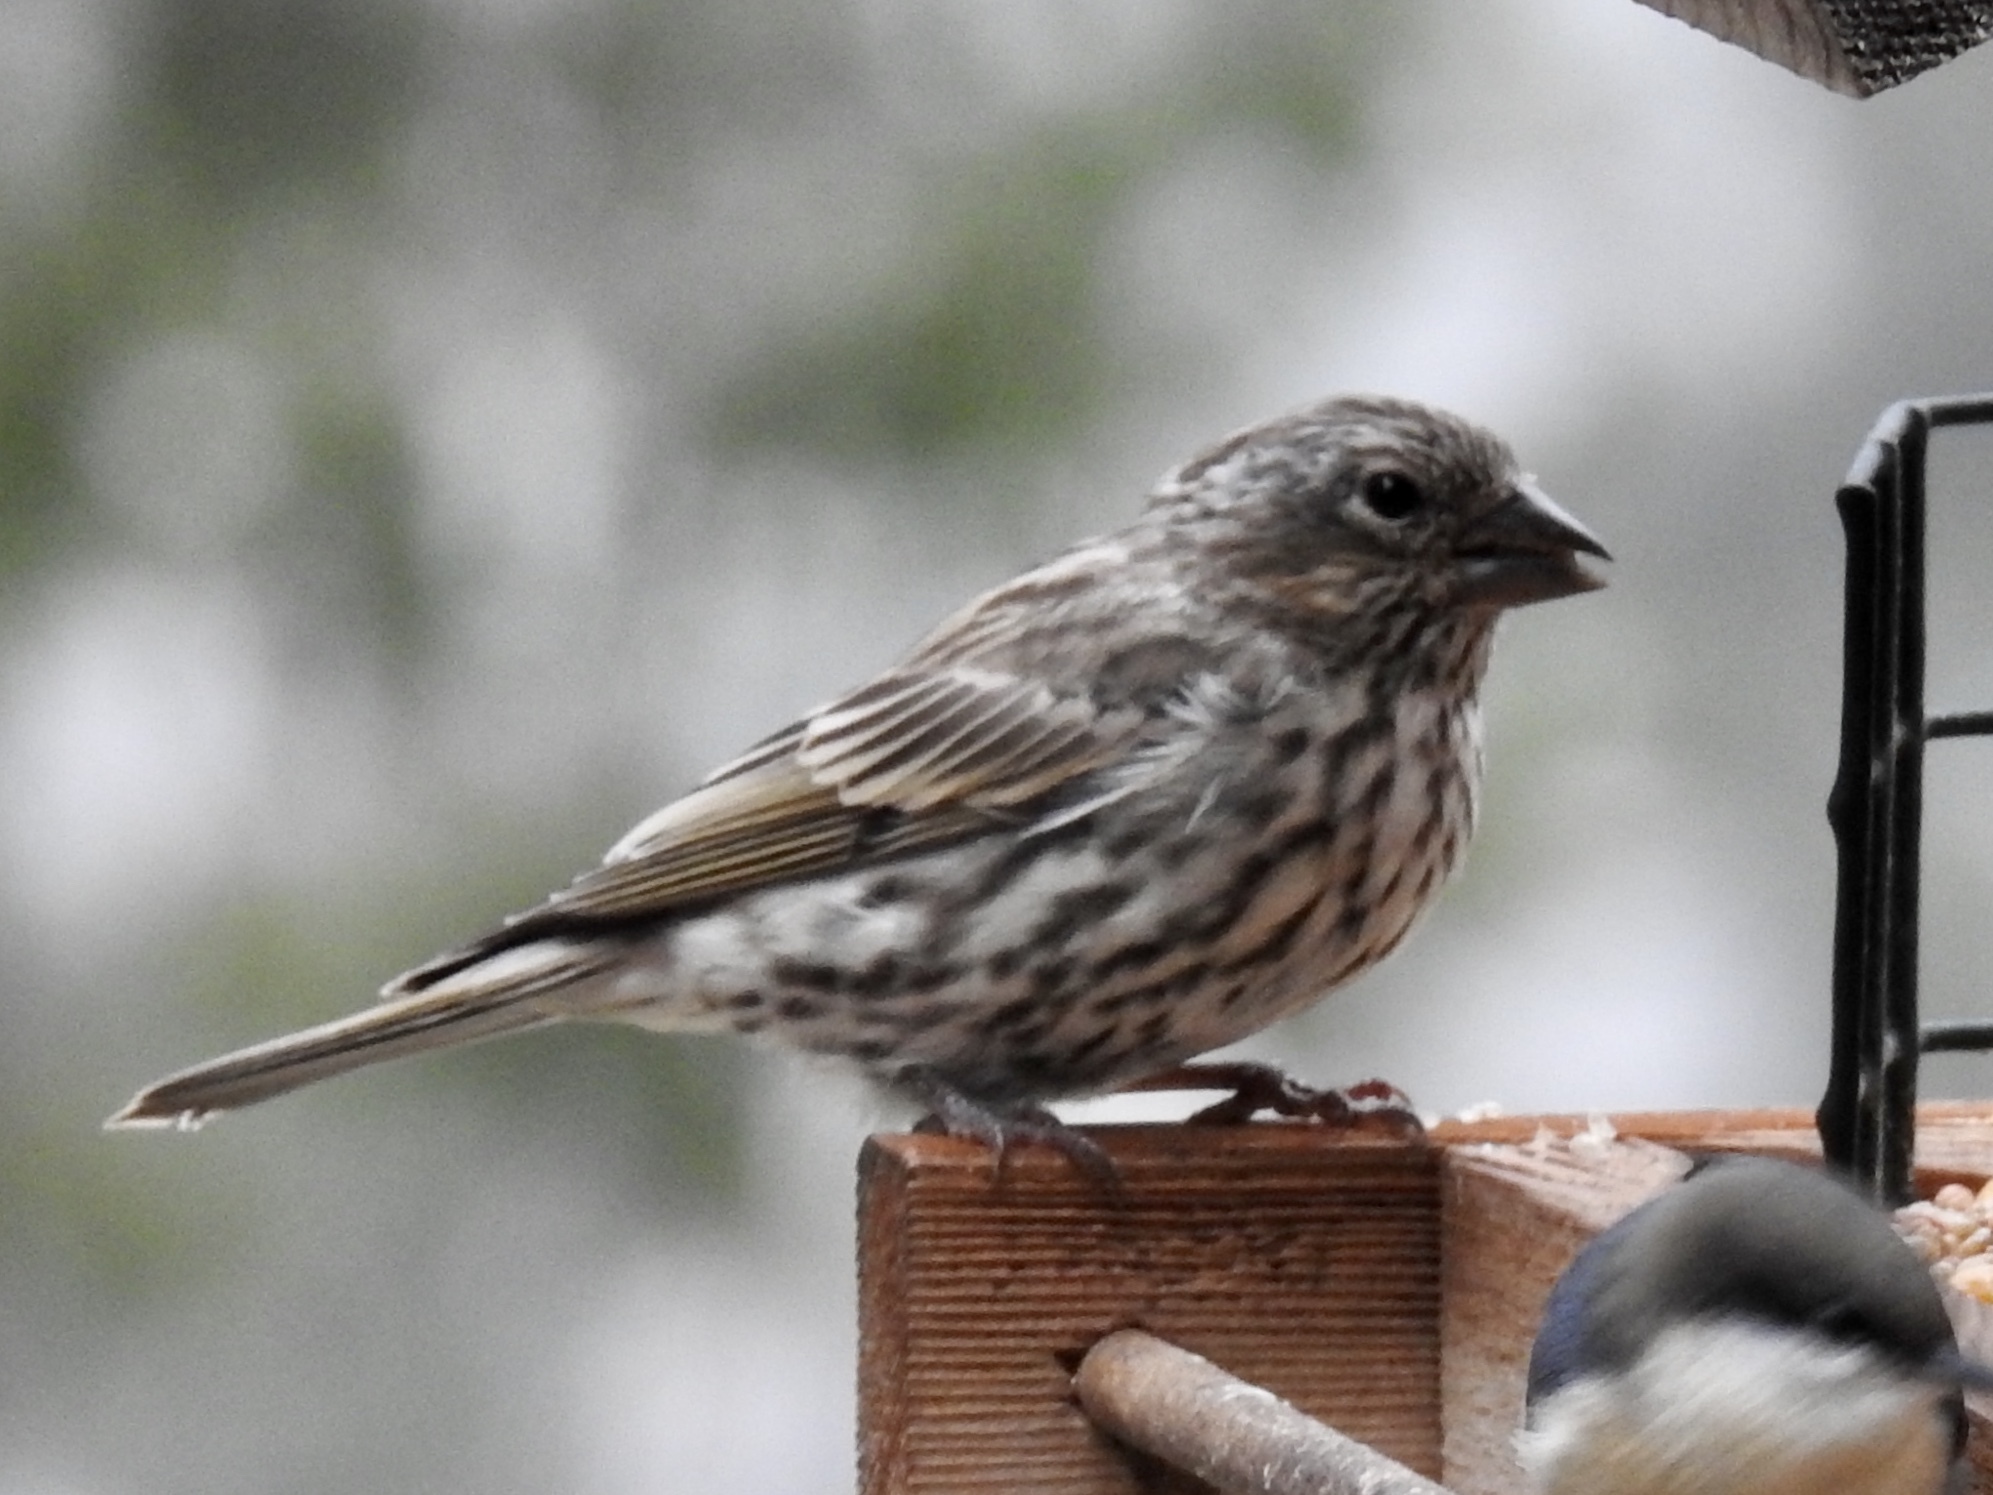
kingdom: Animalia
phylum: Chordata
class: Aves
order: Passeriformes
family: Fringillidae
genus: Haemorhous
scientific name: Haemorhous cassinii
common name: Cassin's finch
